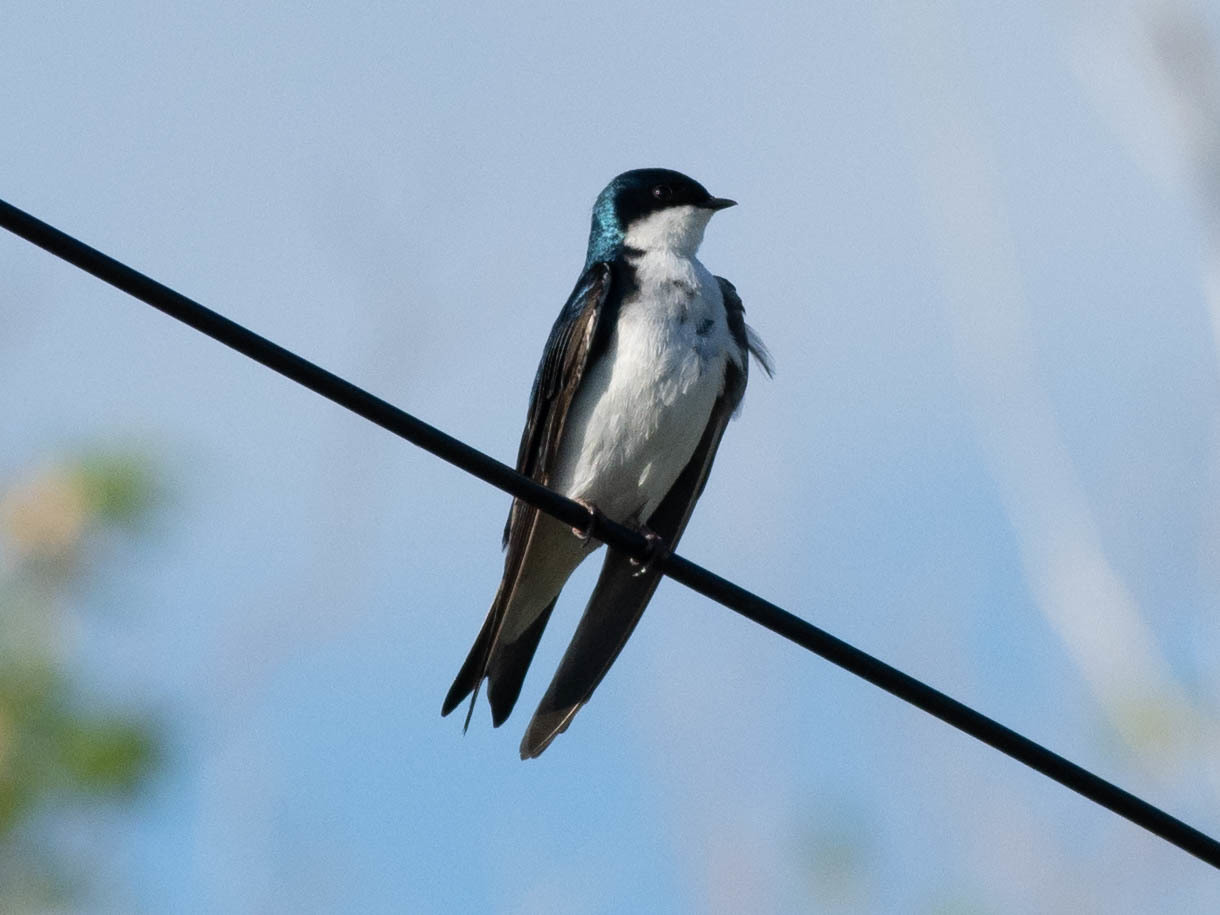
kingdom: Animalia
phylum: Chordata
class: Aves
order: Passeriformes
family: Hirundinidae
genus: Tachycineta
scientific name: Tachycineta bicolor
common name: Tree swallow
